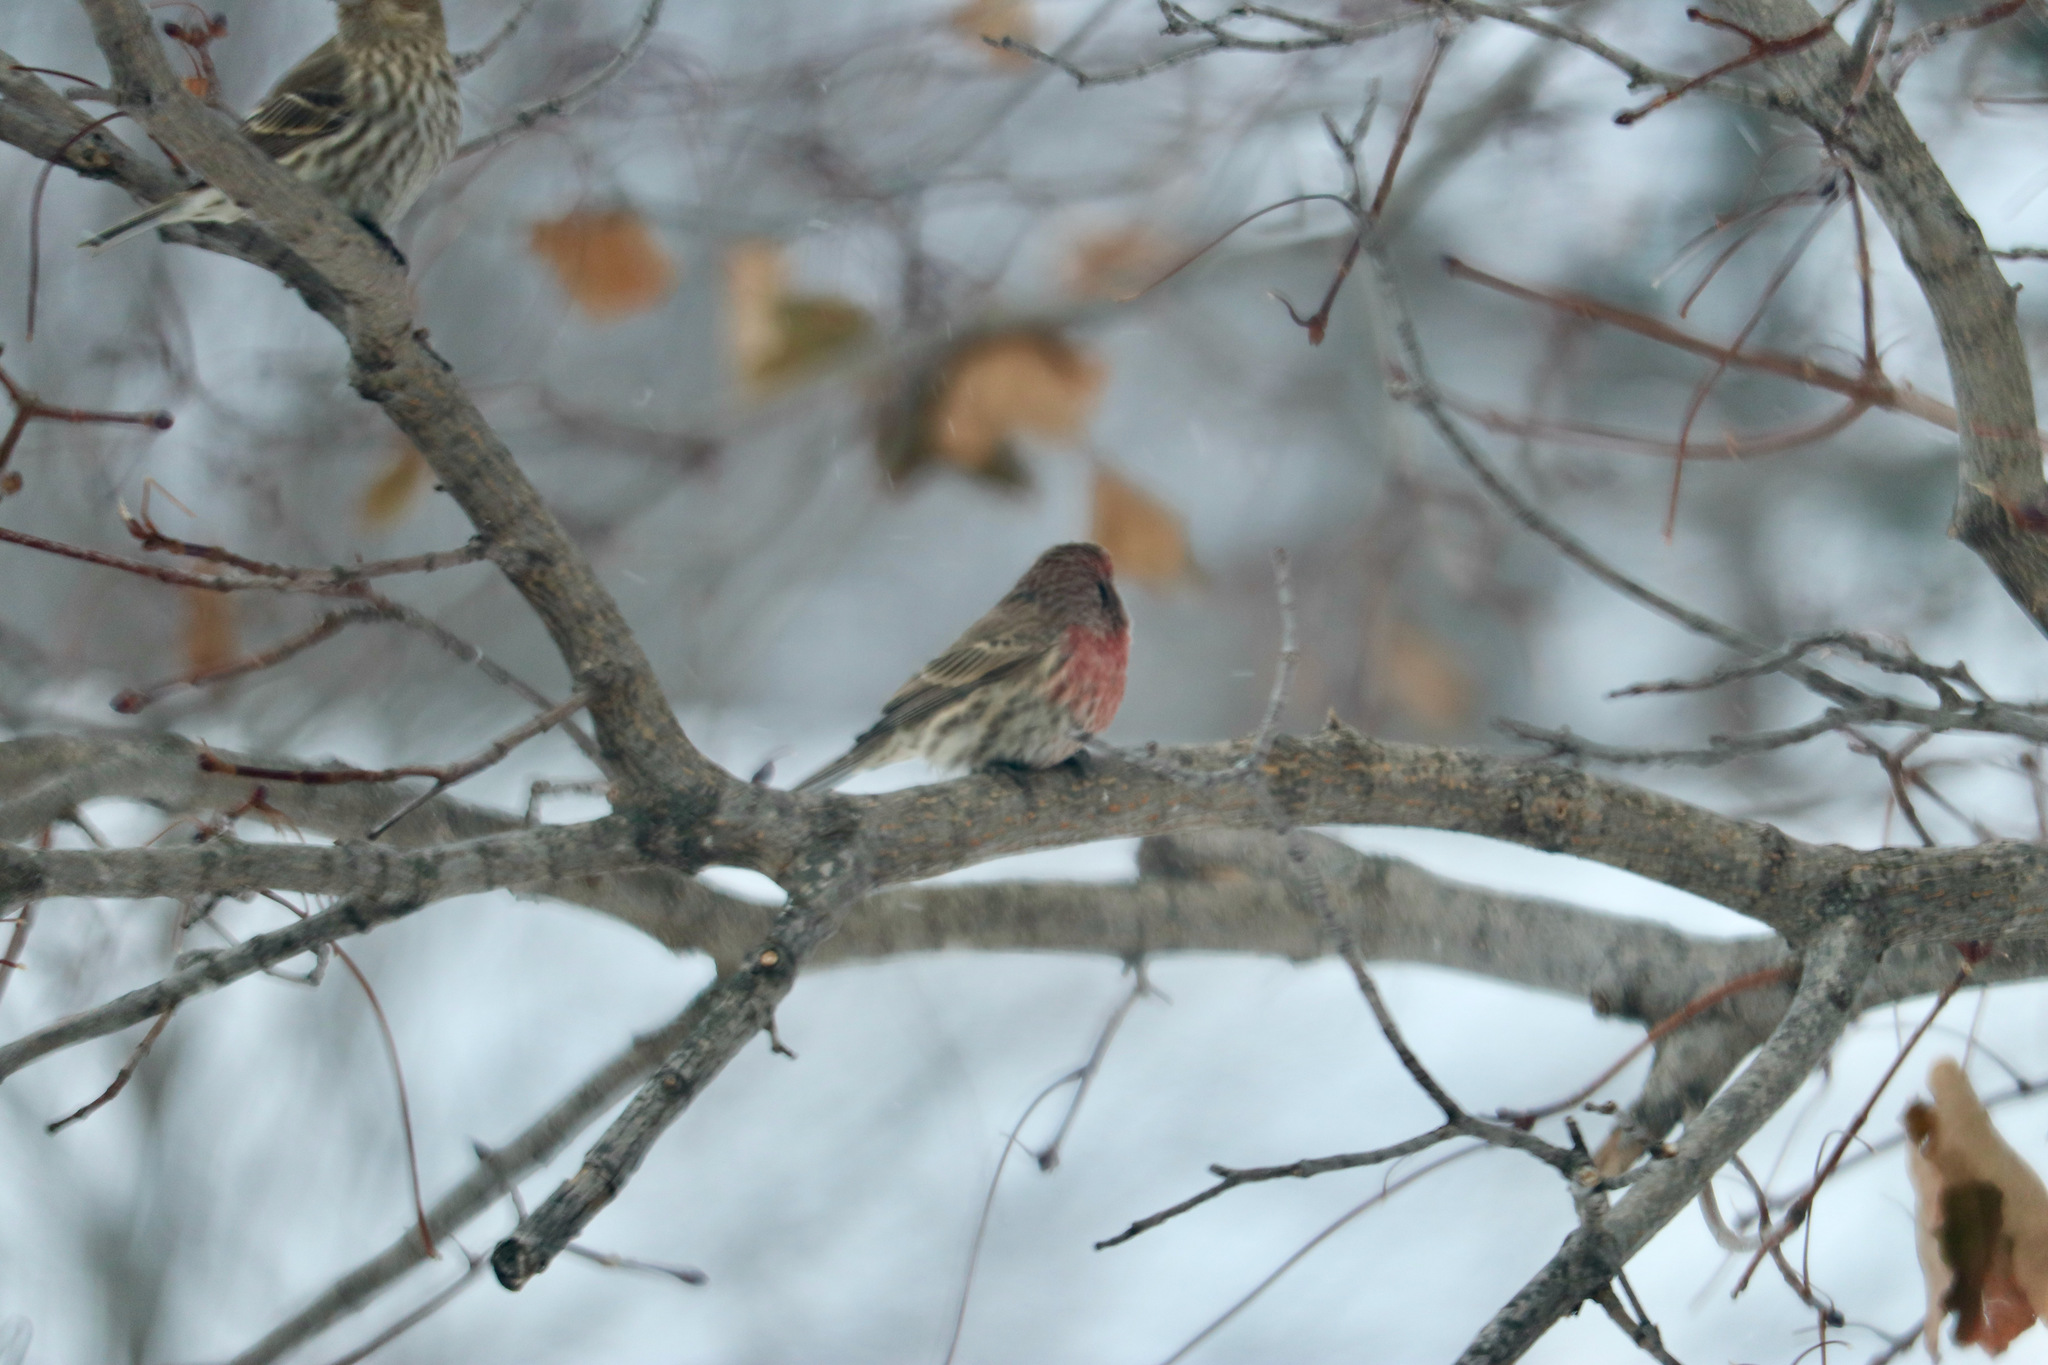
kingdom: Animalia
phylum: Chordata
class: Aves
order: Passeriformes
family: Fringillidae
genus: Haemorhous
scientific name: Haemorhous mexicanus
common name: House finch
